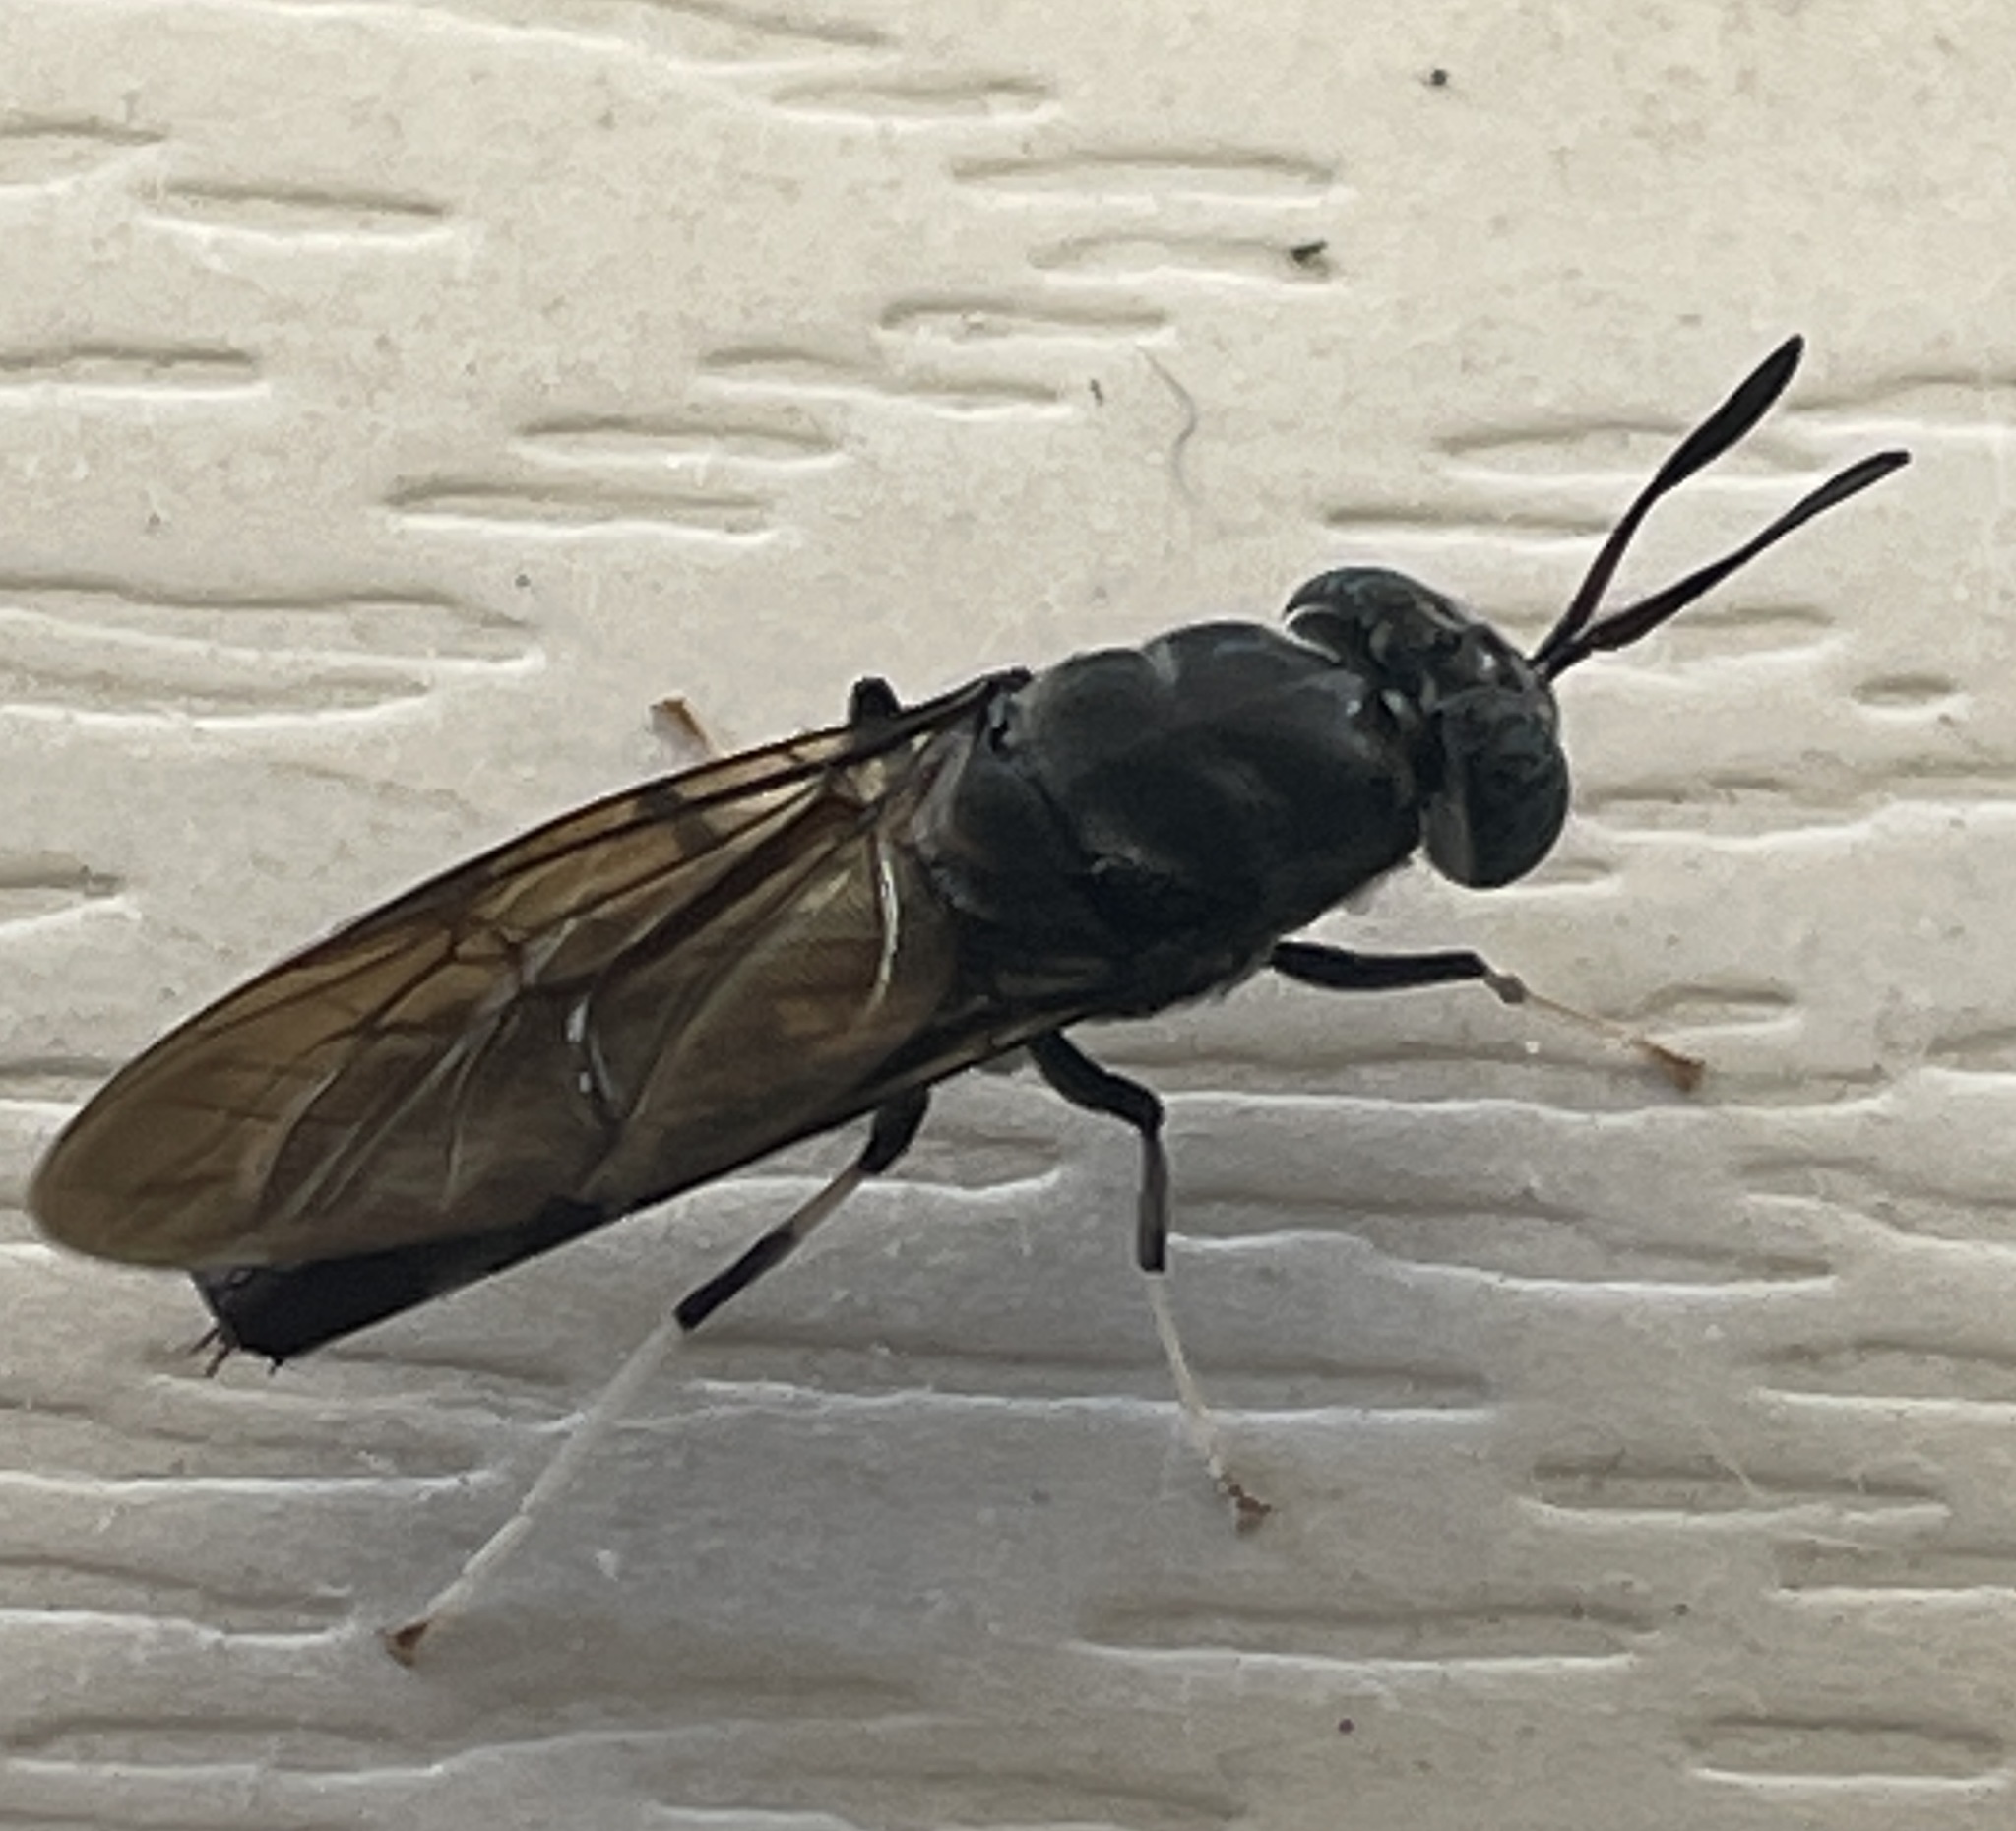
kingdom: Animalia
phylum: Arthropoda
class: Insecta
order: Diptera
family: Stratiomyidae
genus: Hermetia
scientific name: Hermetia illucens
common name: Black soldier fly
